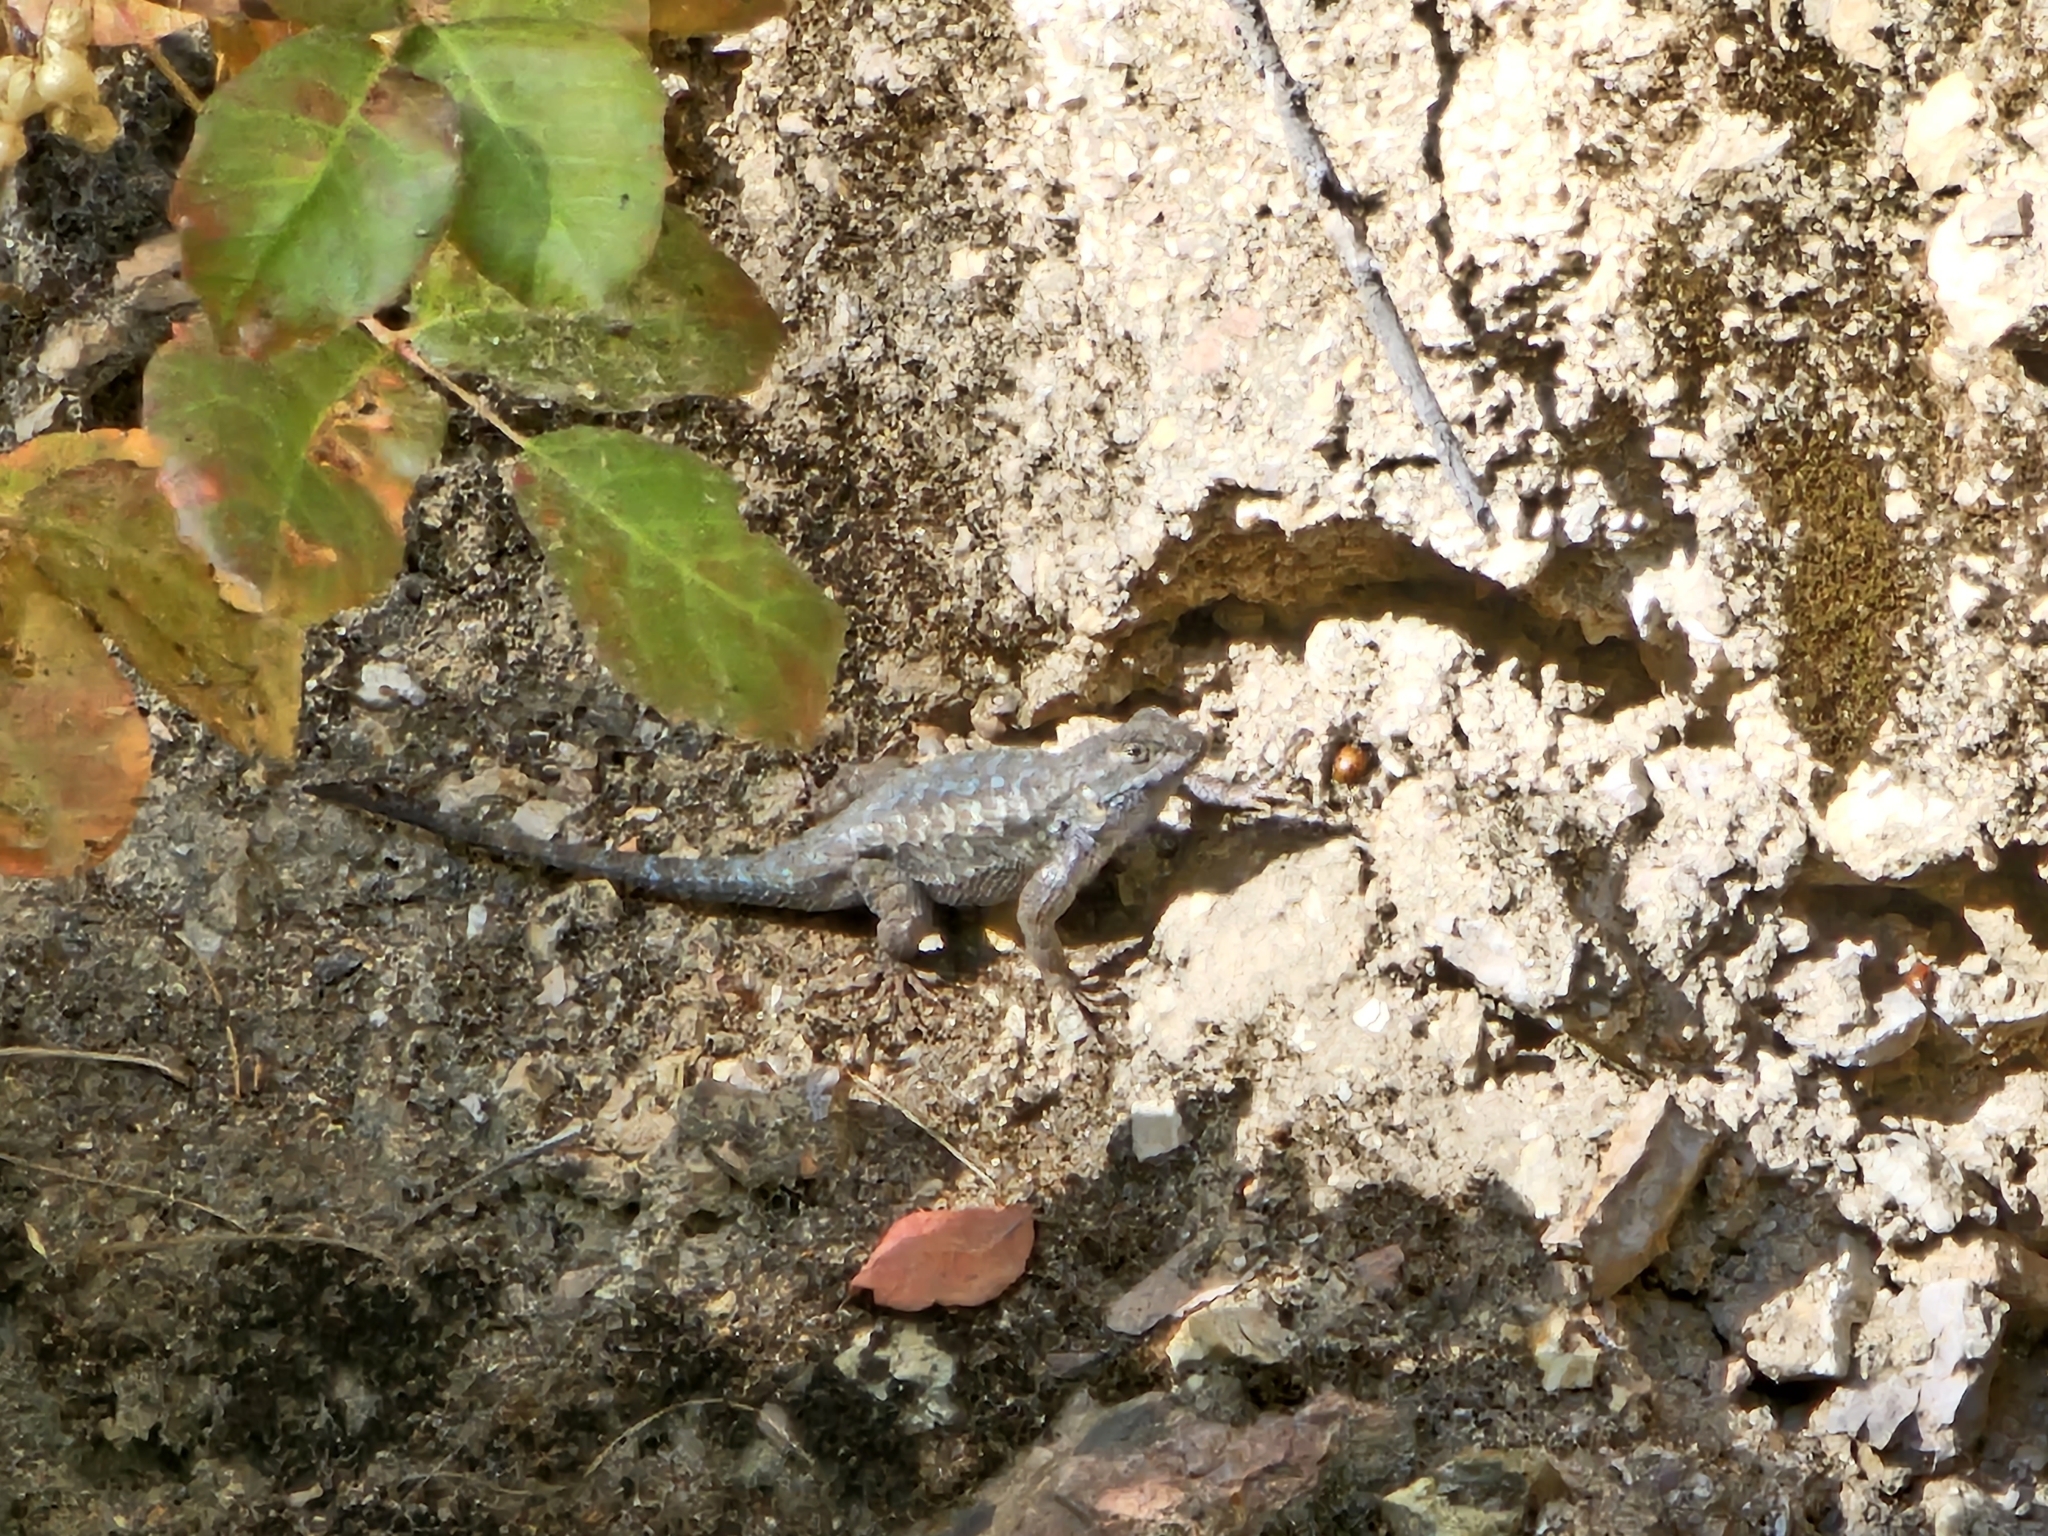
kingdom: Animalia
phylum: Chordata
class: Squamata
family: Phrynosomatidae
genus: Sceloporus
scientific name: Sceloporus occidentalis
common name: Western fence lizard
